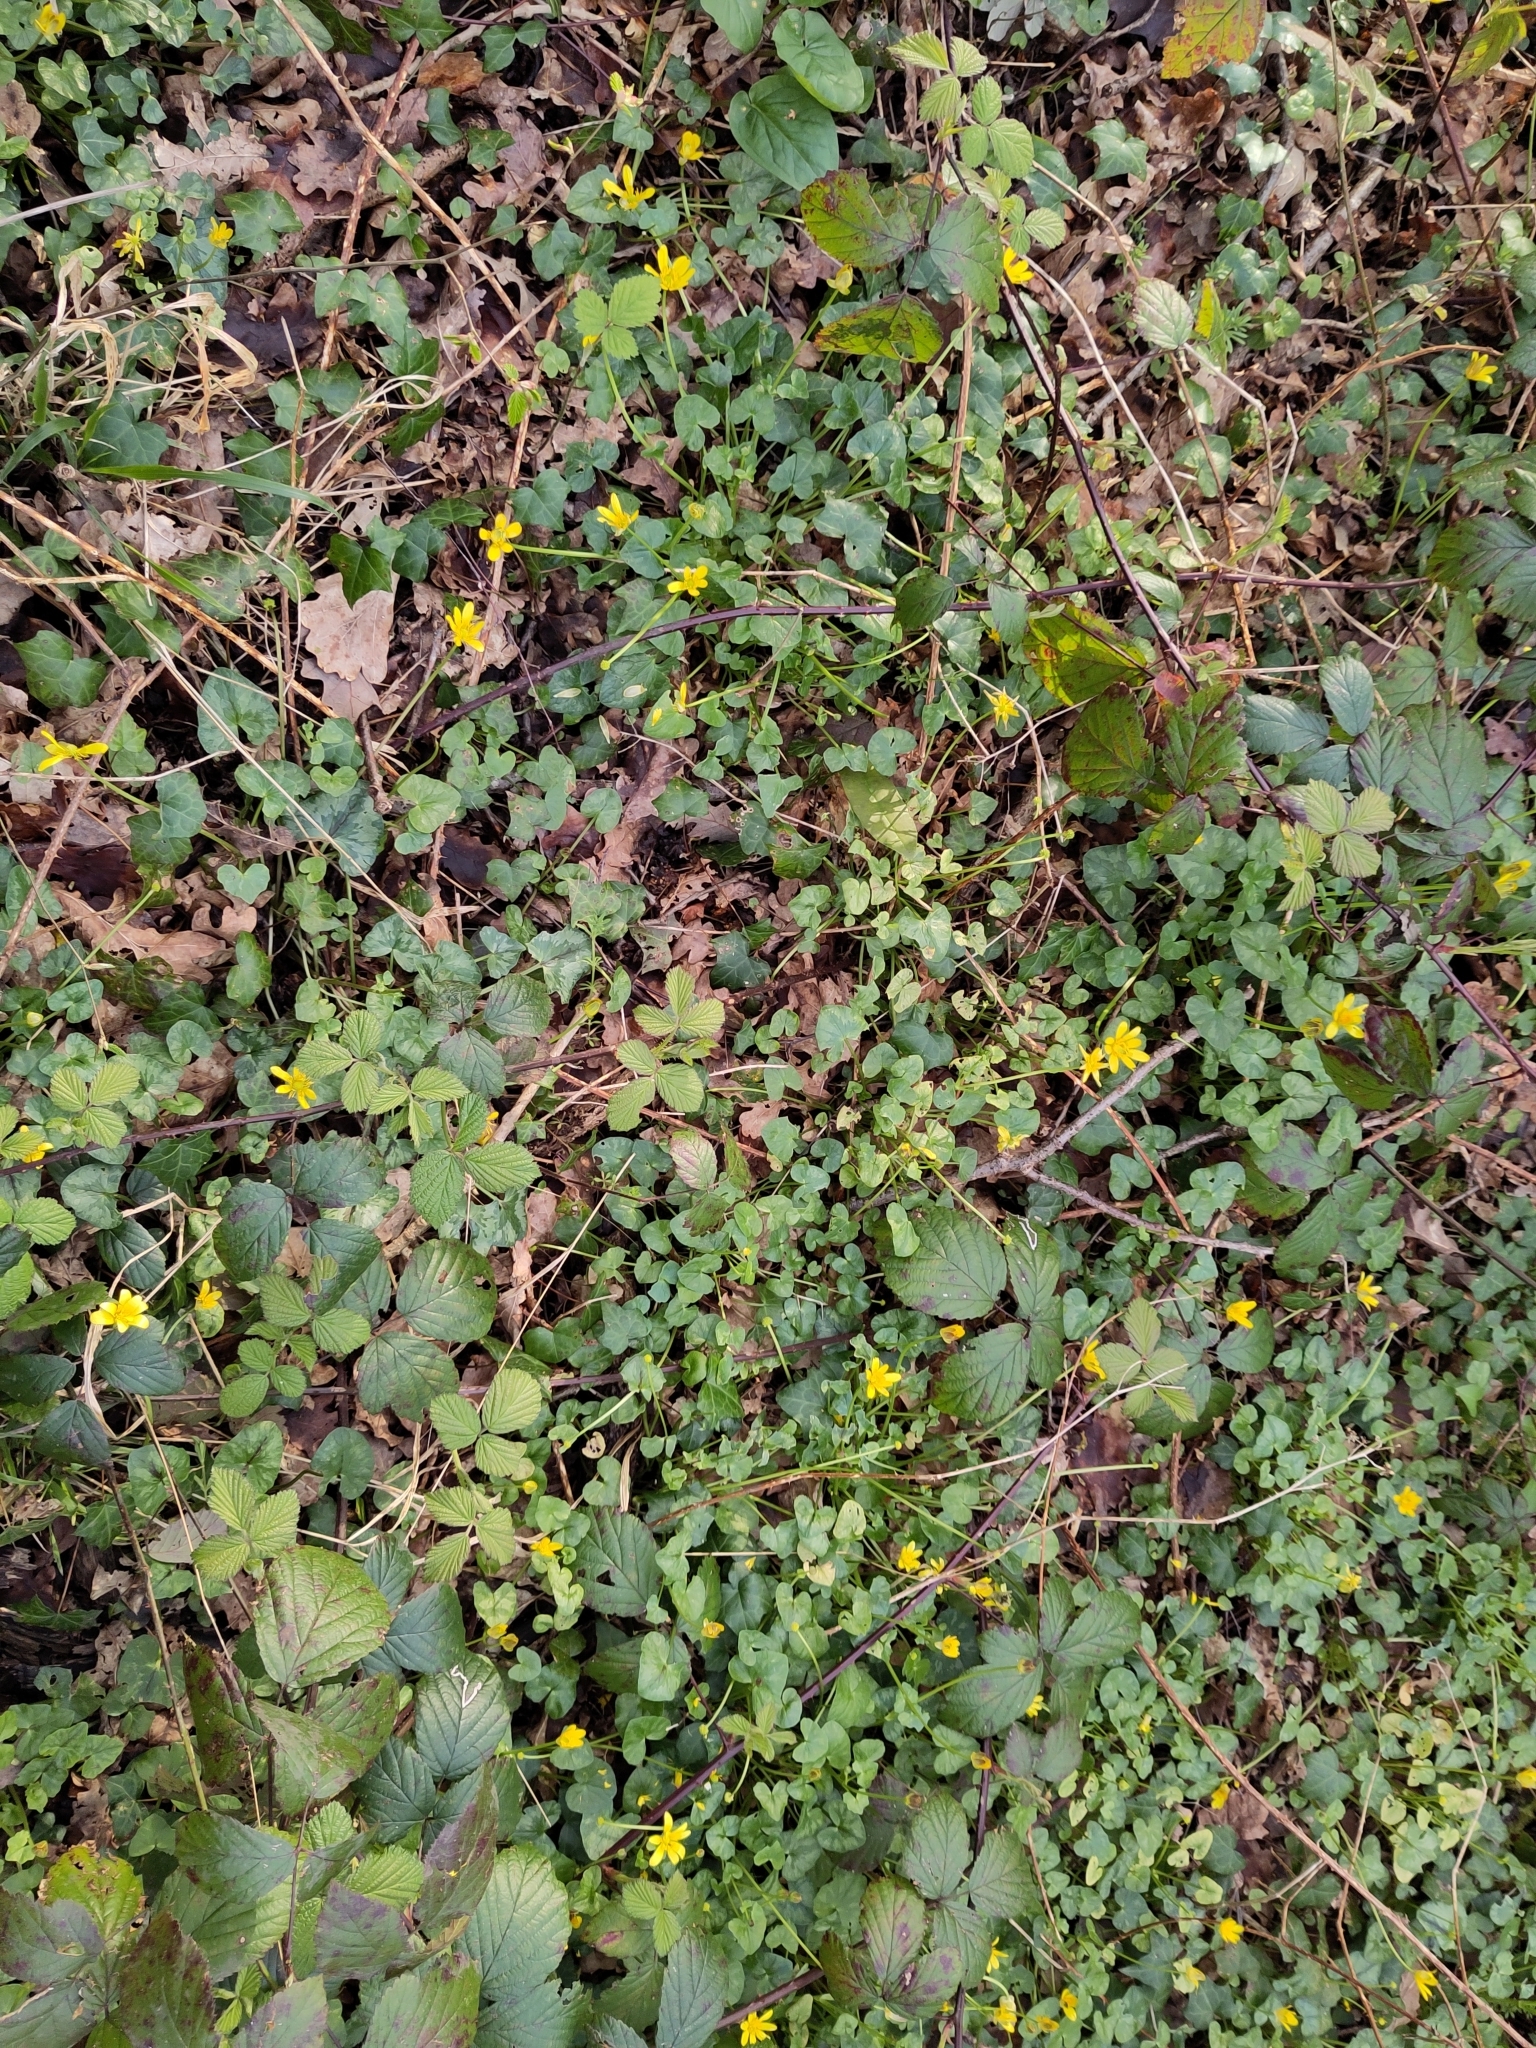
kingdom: Plantae
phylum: Tracheophyta
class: Magnoliopsida
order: Ranunculales
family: Ranunculaceae
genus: Ficaria
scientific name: Ficaria verna
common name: Lesser celandine
